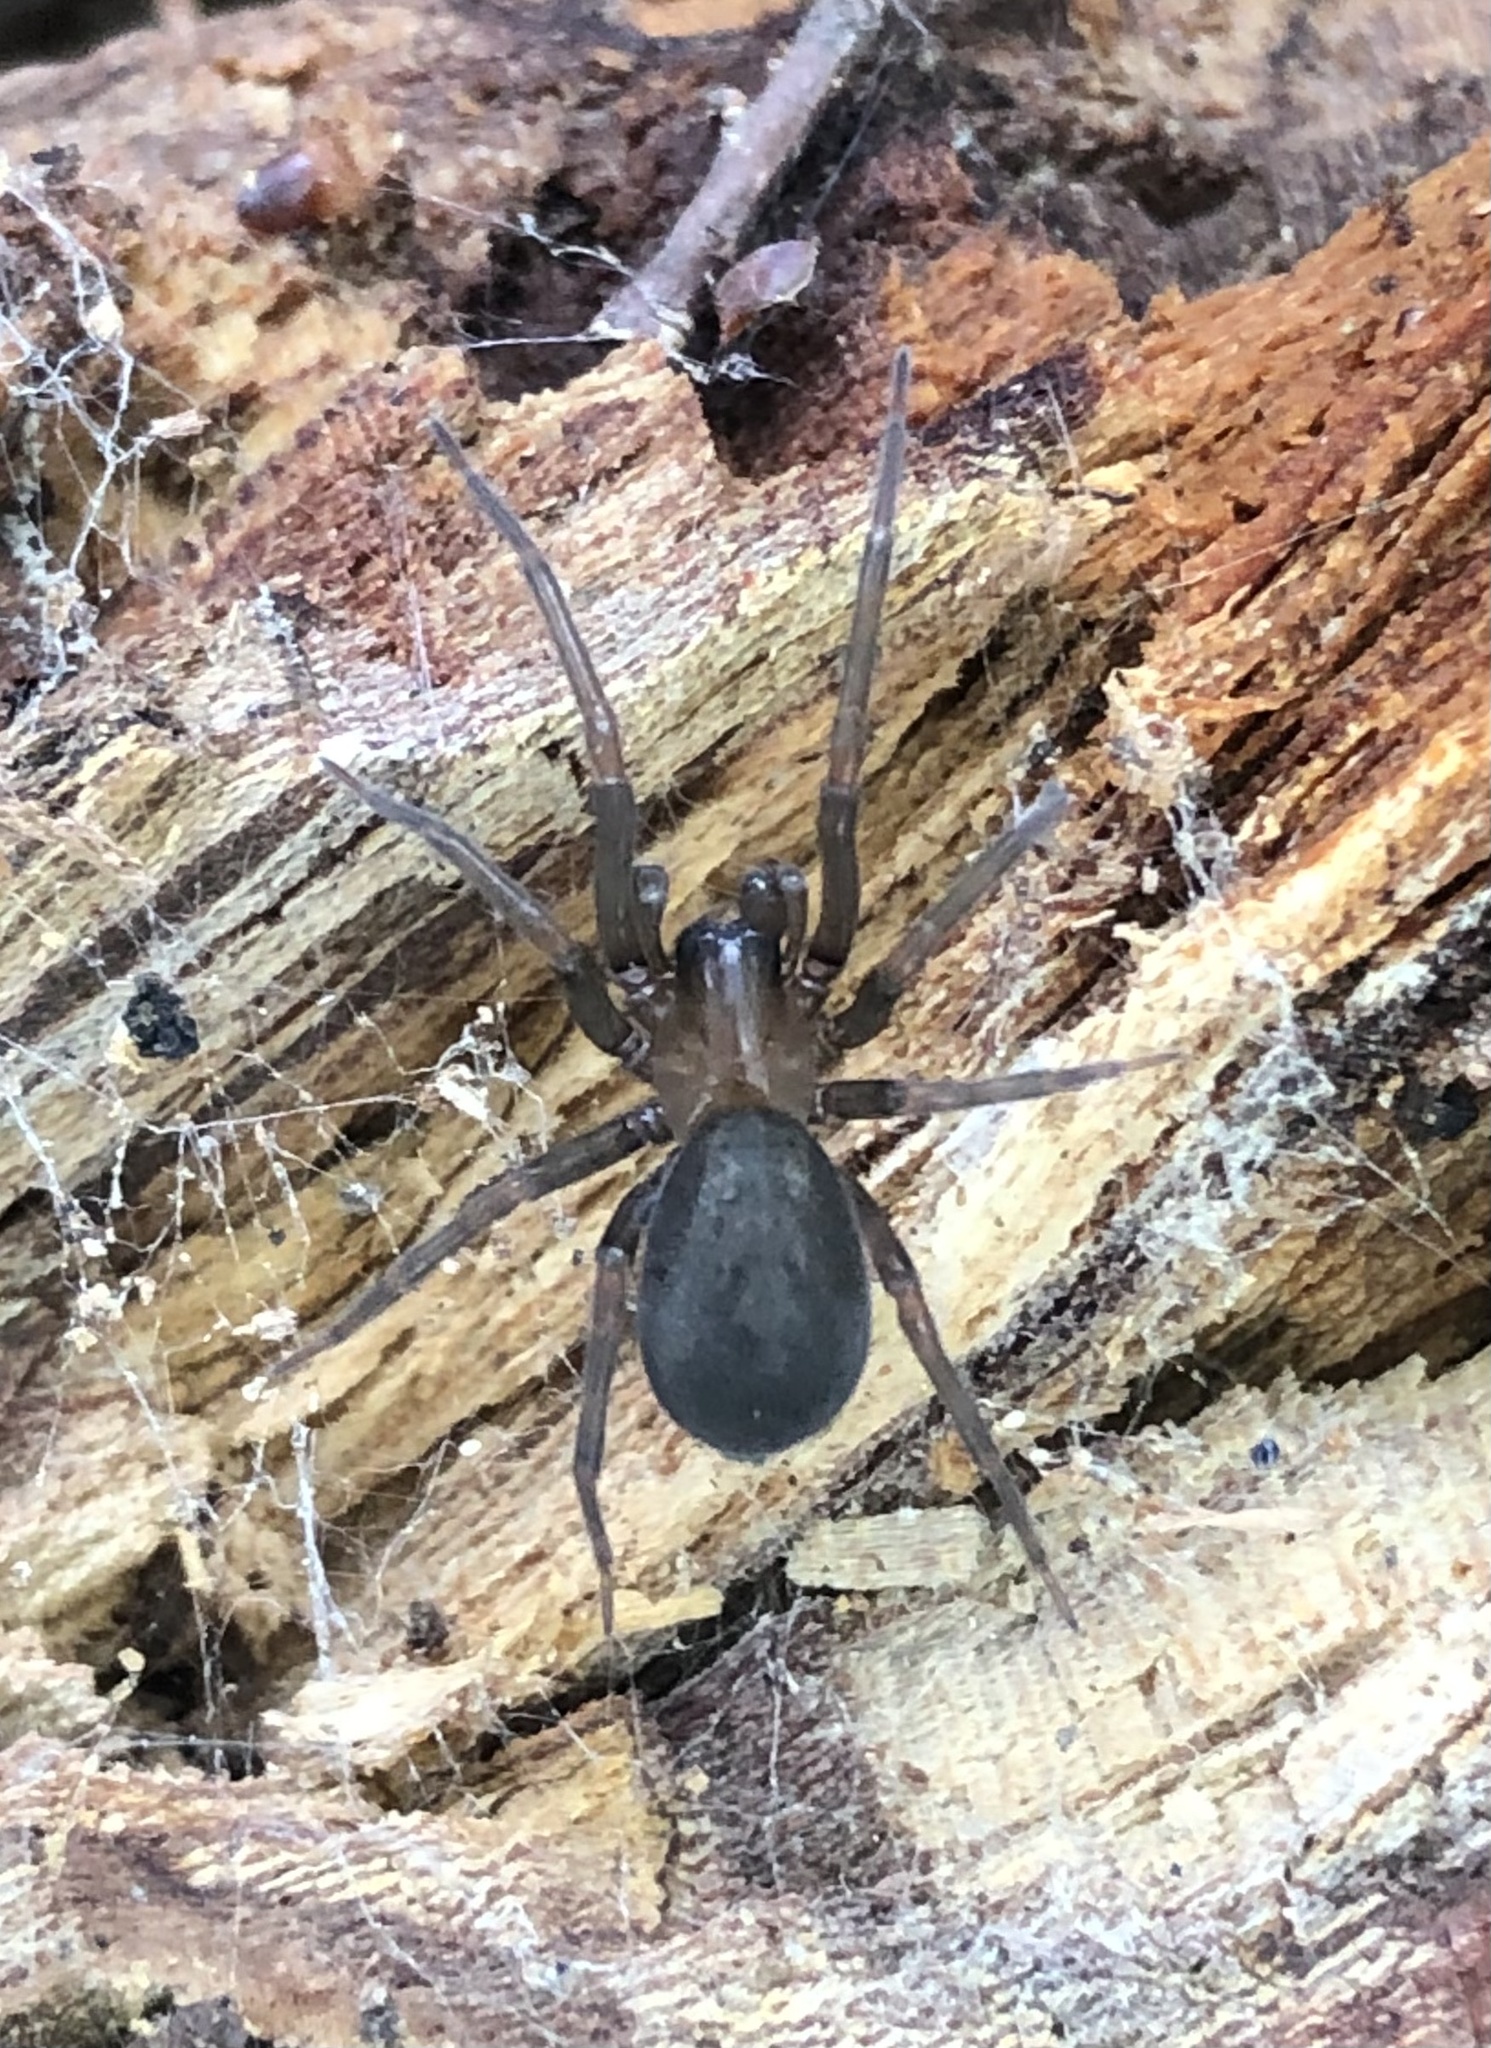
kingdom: Animalia
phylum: Arthropoda
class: Arachnida
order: Araneae
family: Desidae
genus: Metaltella
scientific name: Metaltella simoni
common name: Cribellate spider
